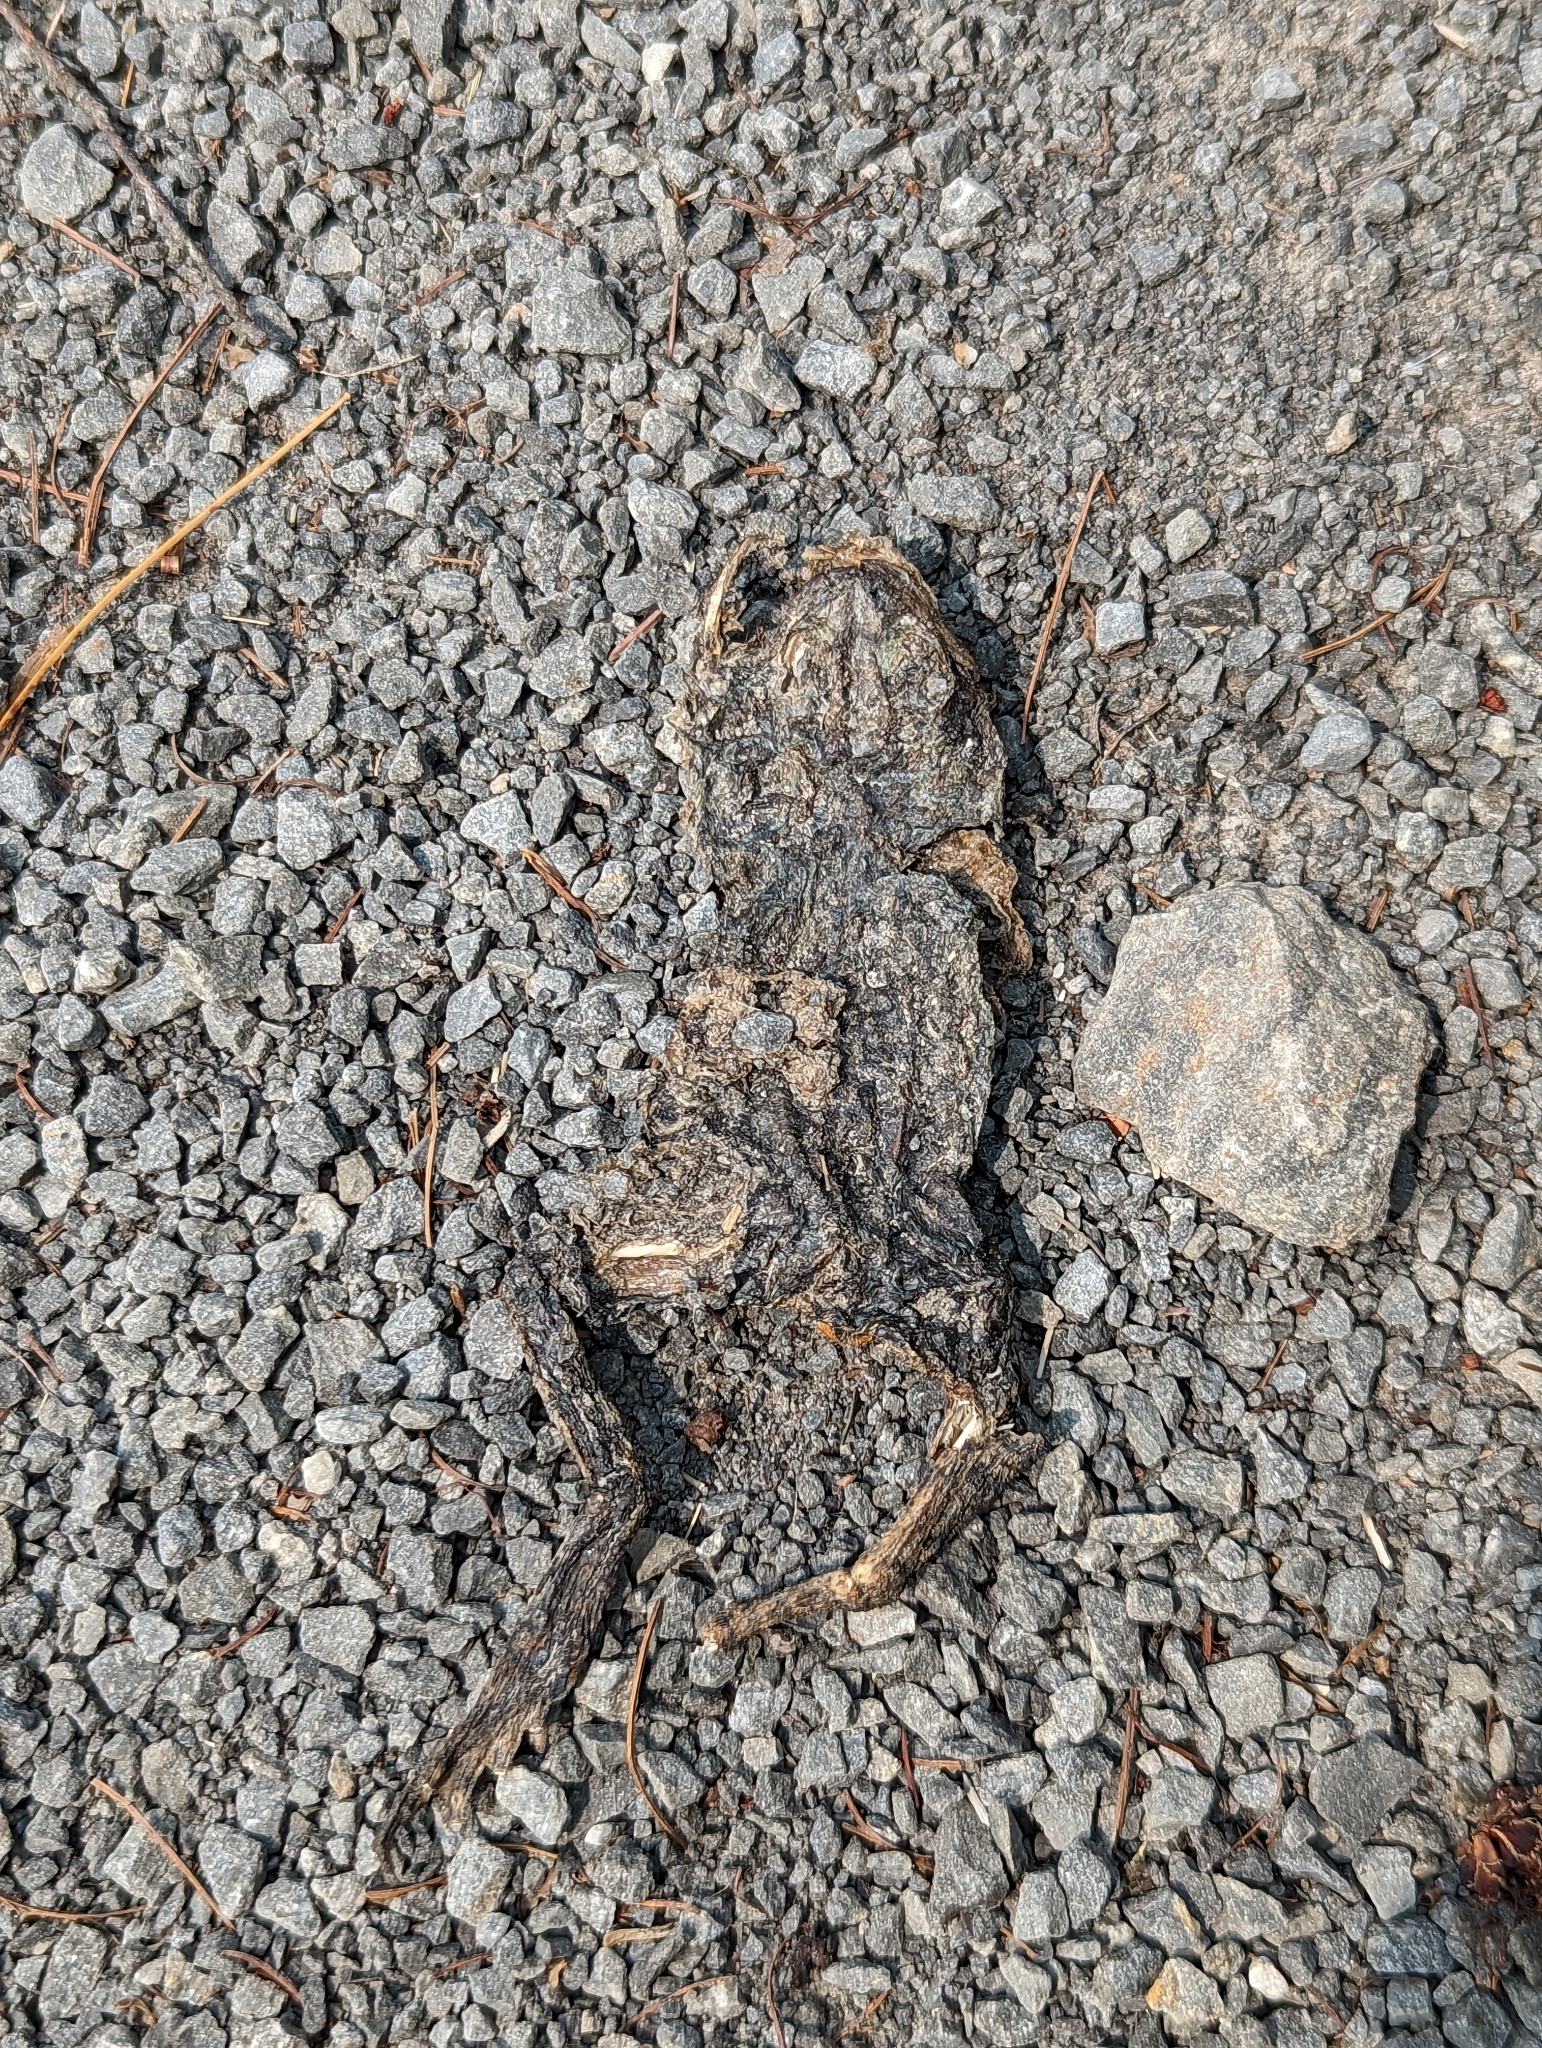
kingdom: Animalia
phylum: Chordata
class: Amphibia
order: Anura
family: Bufonidae
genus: Anaxyrus
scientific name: Anaxyrus americanus
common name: American toad
